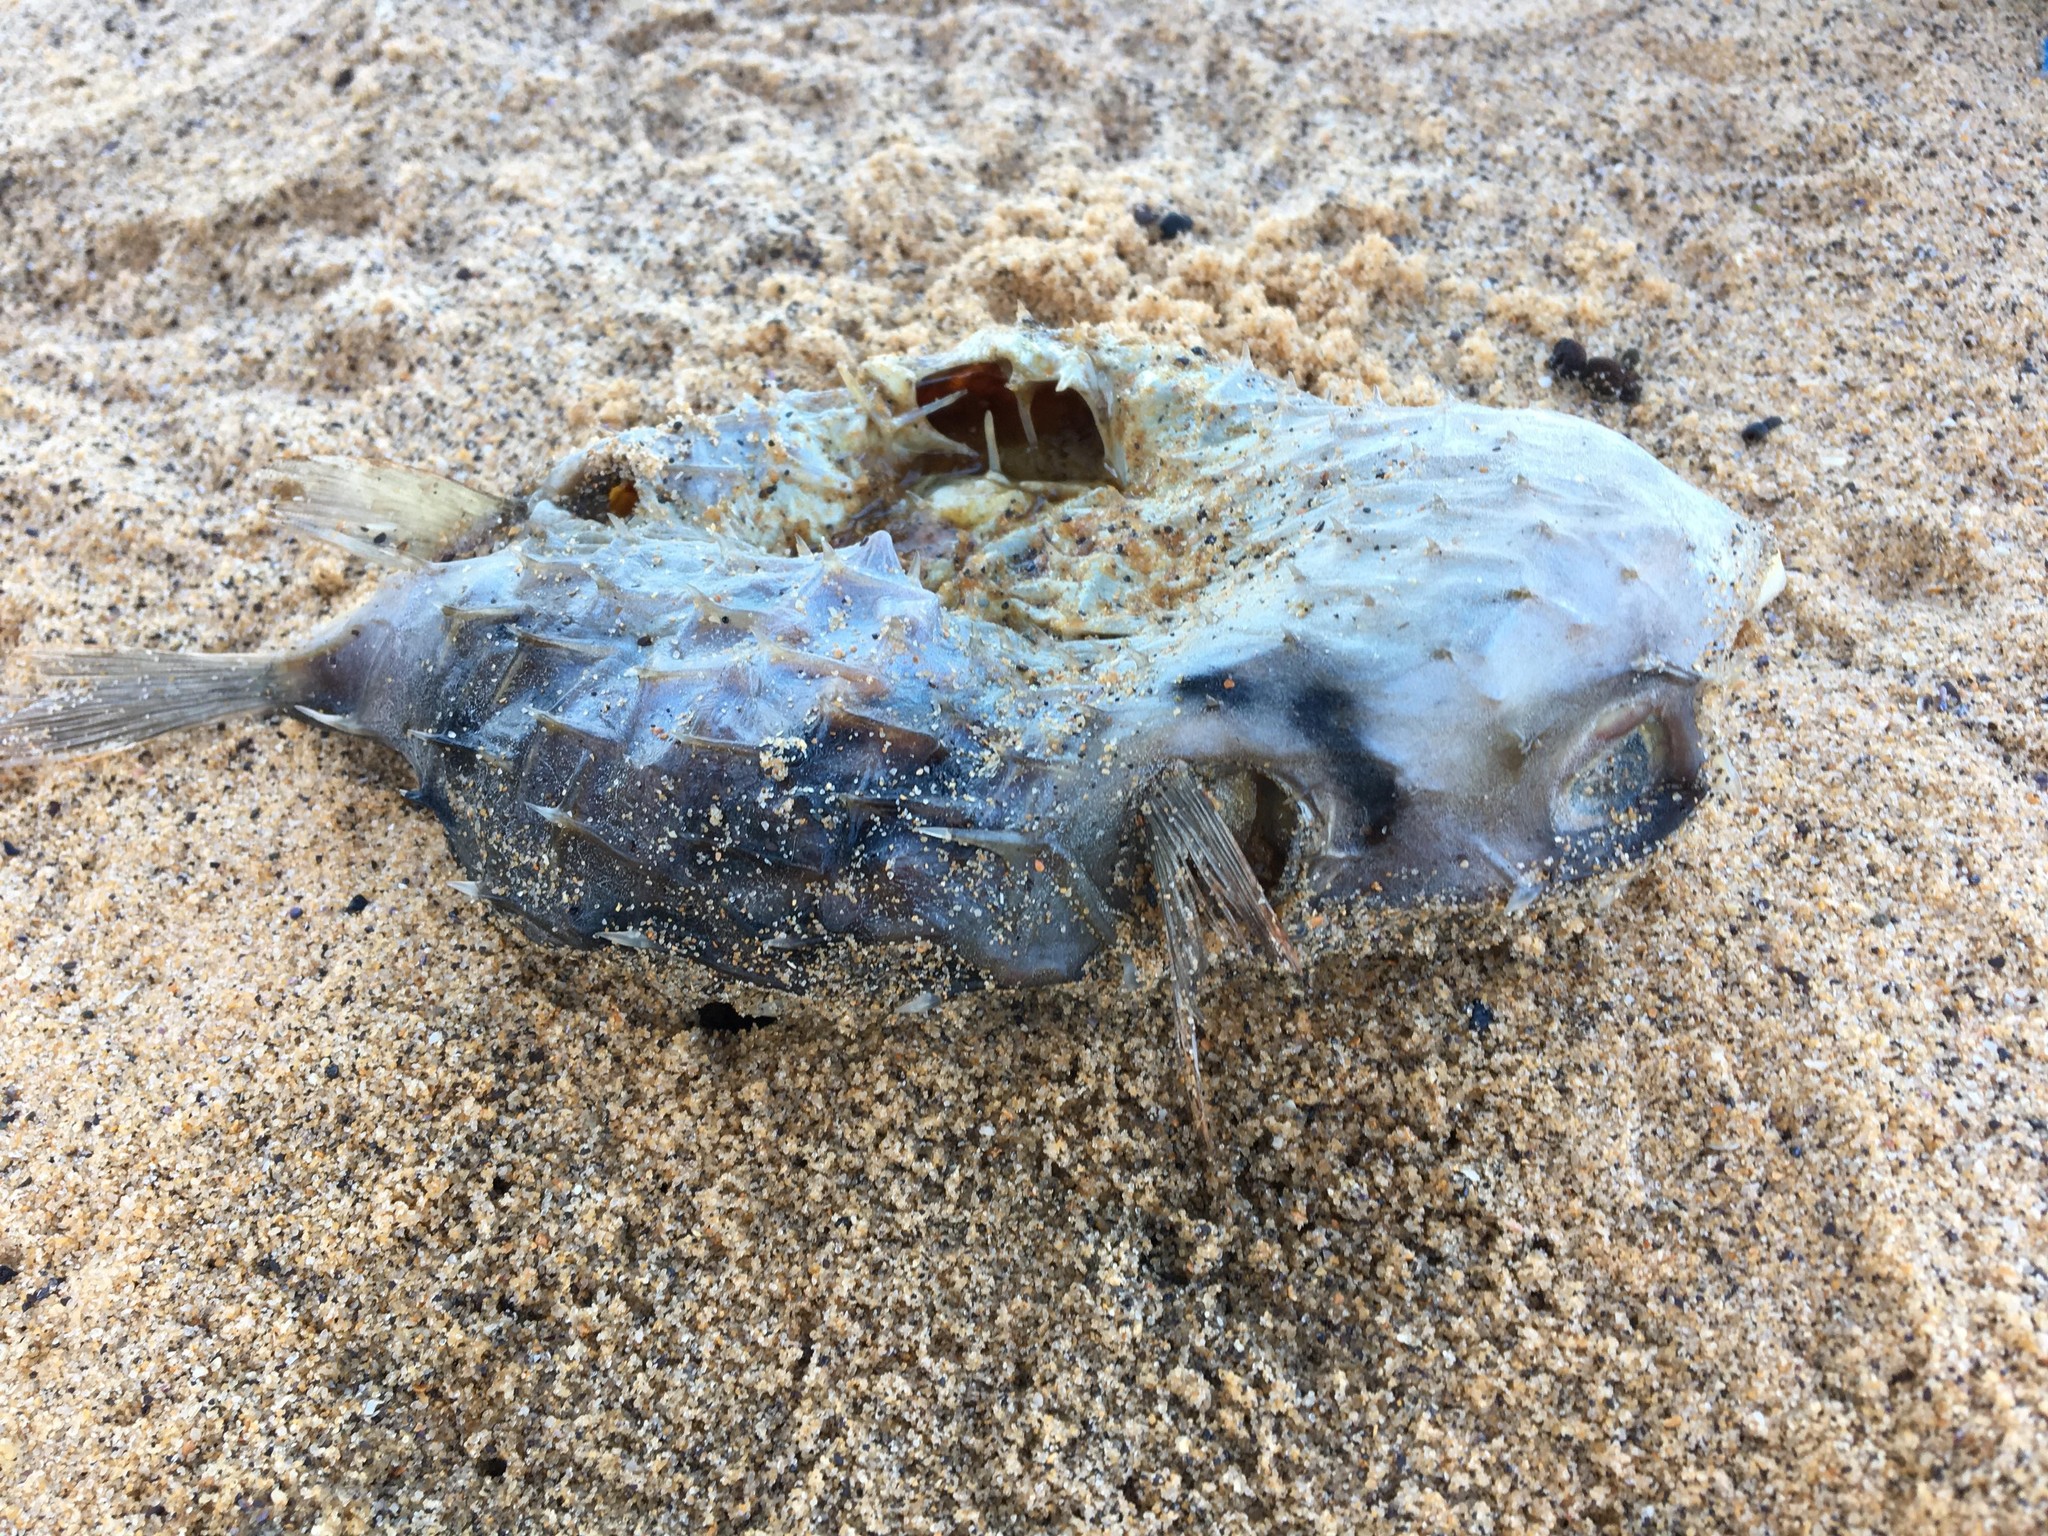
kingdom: Animalia
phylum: Chordata
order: Tetraodontiformes
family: Diodontidae
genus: Dicotylichthys
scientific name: Dicotylichthys punctulatus
